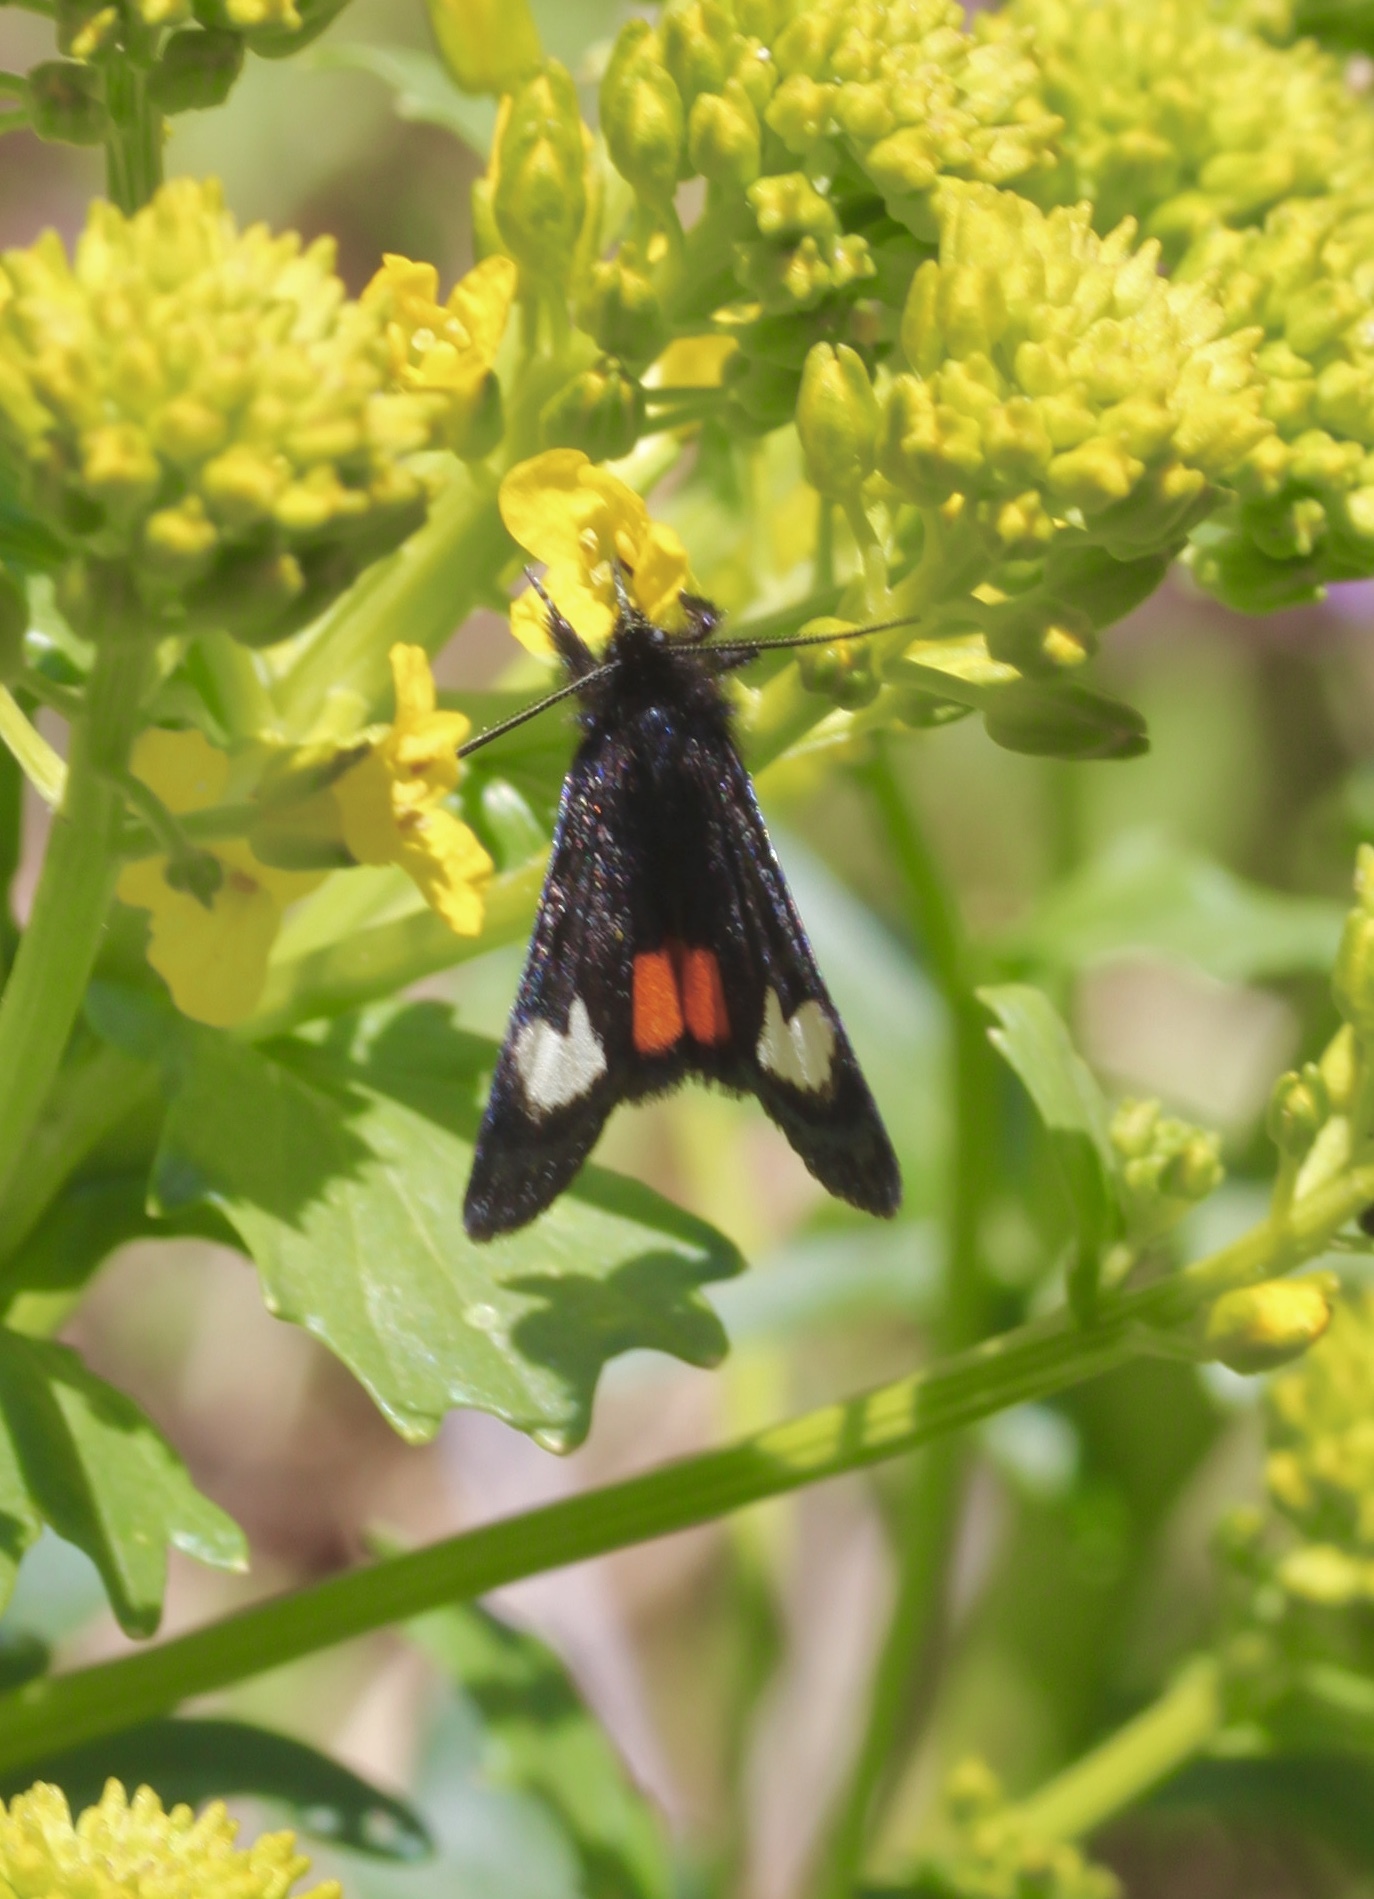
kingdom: Animalia
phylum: Arthropoda
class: Insecta
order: Lepidoptera
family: Noctuidae
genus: Psychomorpha
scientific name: Psychomorpha epimenis
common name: Grapevine epimenis moth
